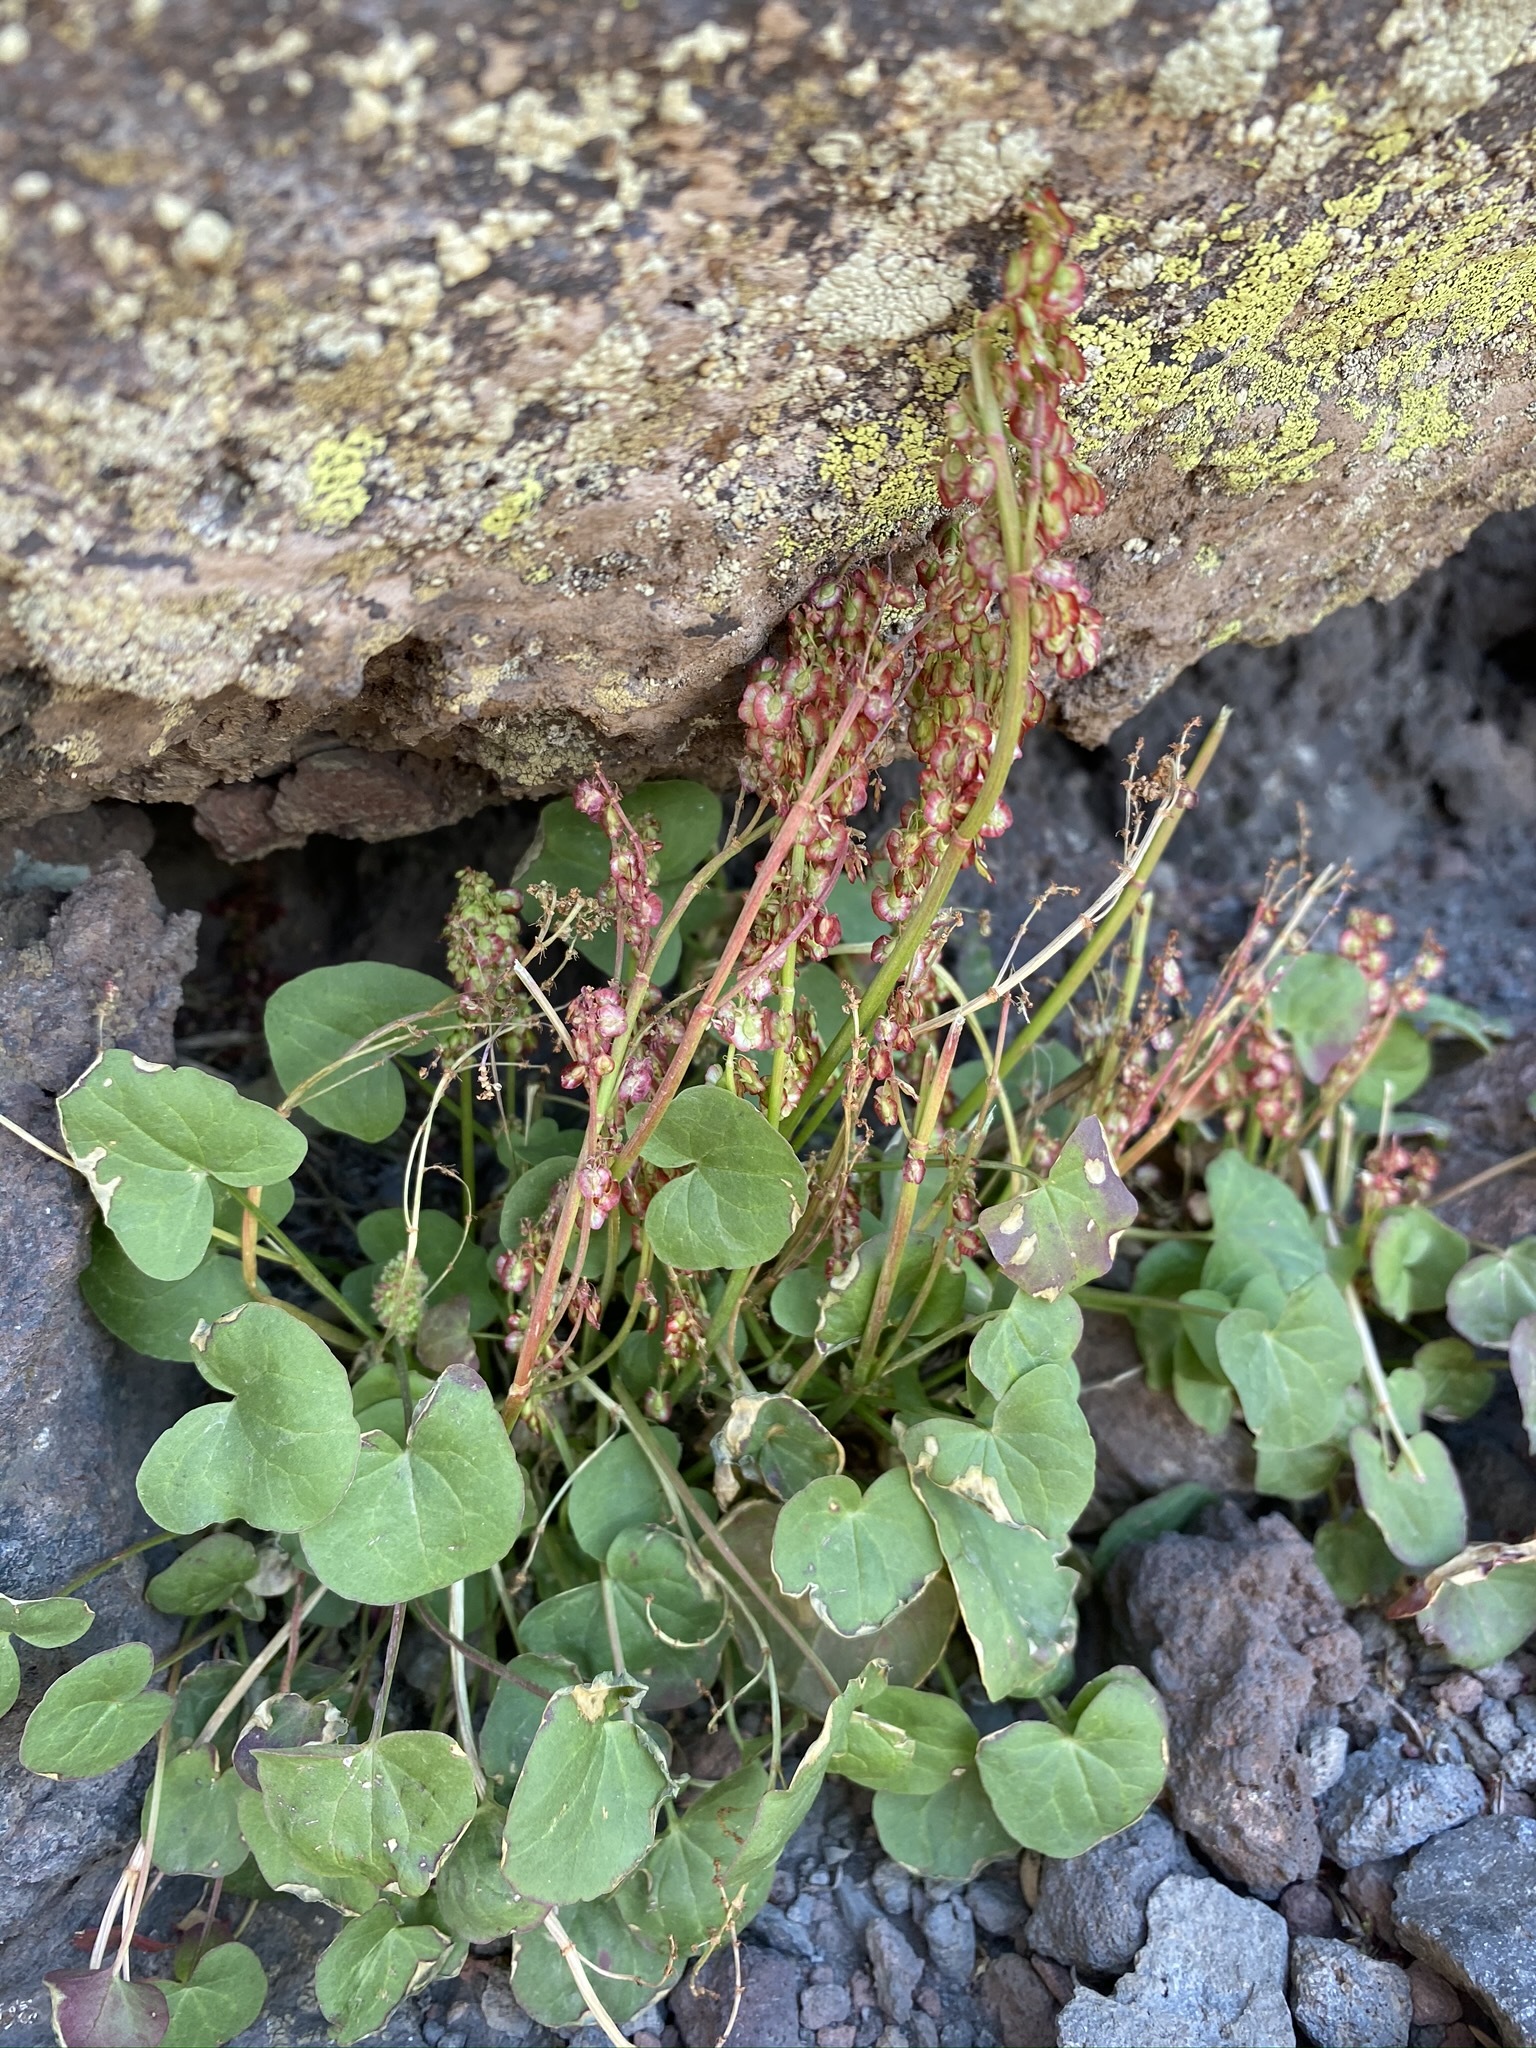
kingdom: Plantae
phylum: Tracheophyta
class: Magnoliopsida
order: Caryophyllales
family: Polygonaceae
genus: Oxyria
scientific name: Oxyria digyna
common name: Alpine mountain-sorrel
